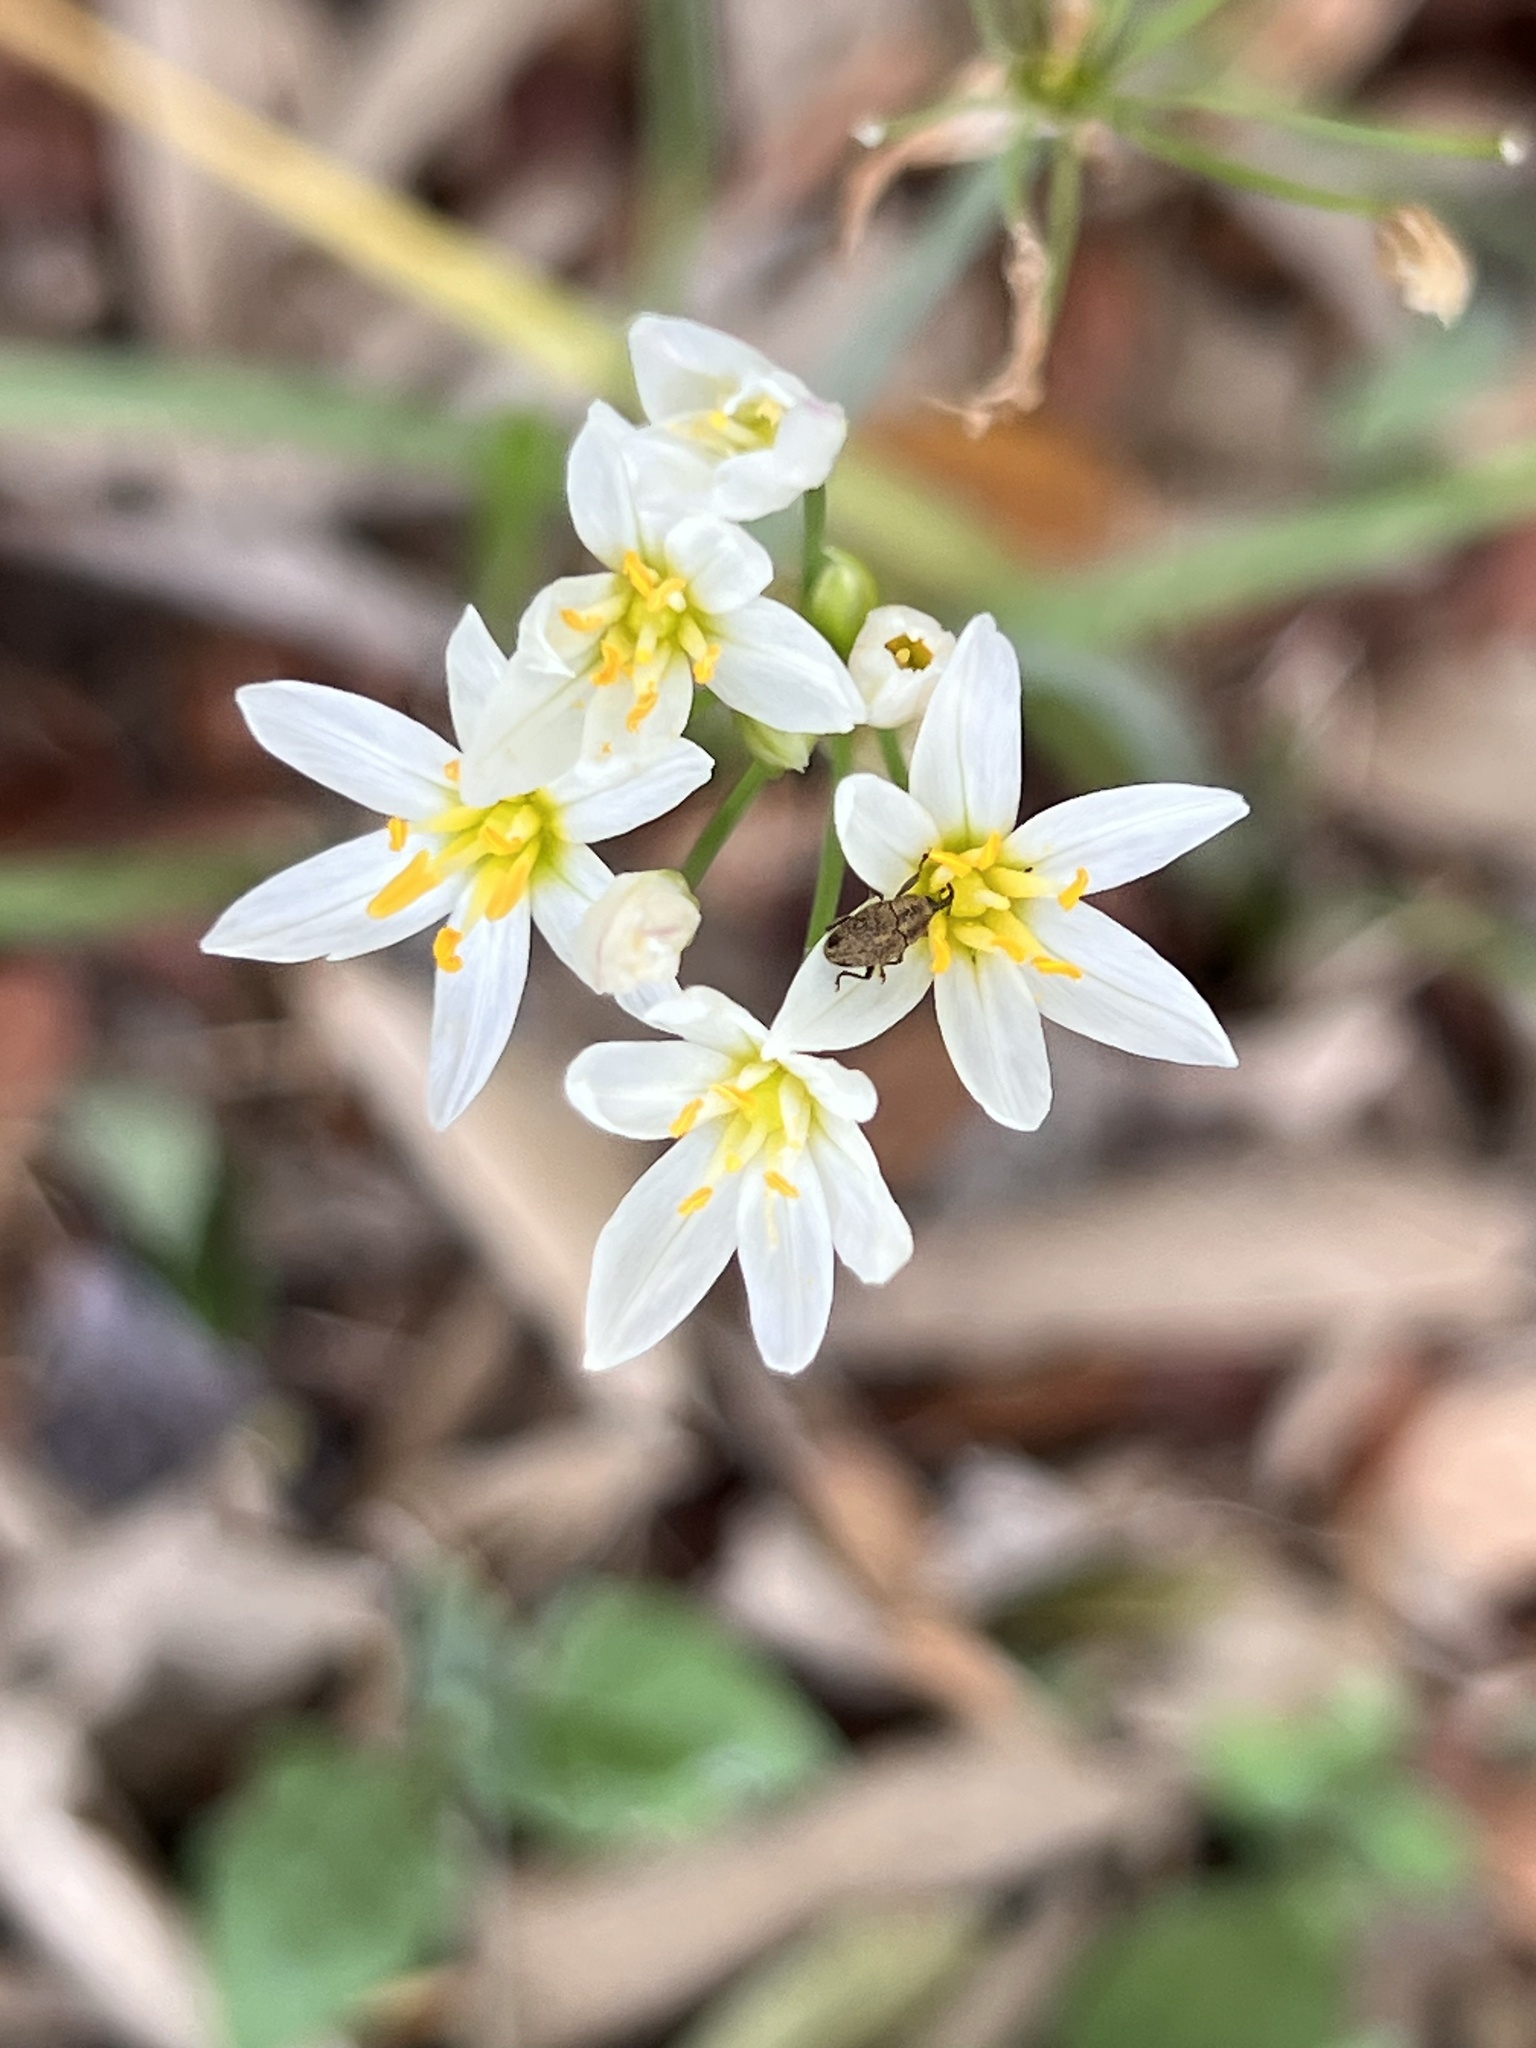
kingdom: Plantae
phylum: Tracheophyta
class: Liliopsida
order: Asparagales
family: Amaryllidaceae
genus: Nothoscordum
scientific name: Nothoscordum bivalve
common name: Crow-poison
